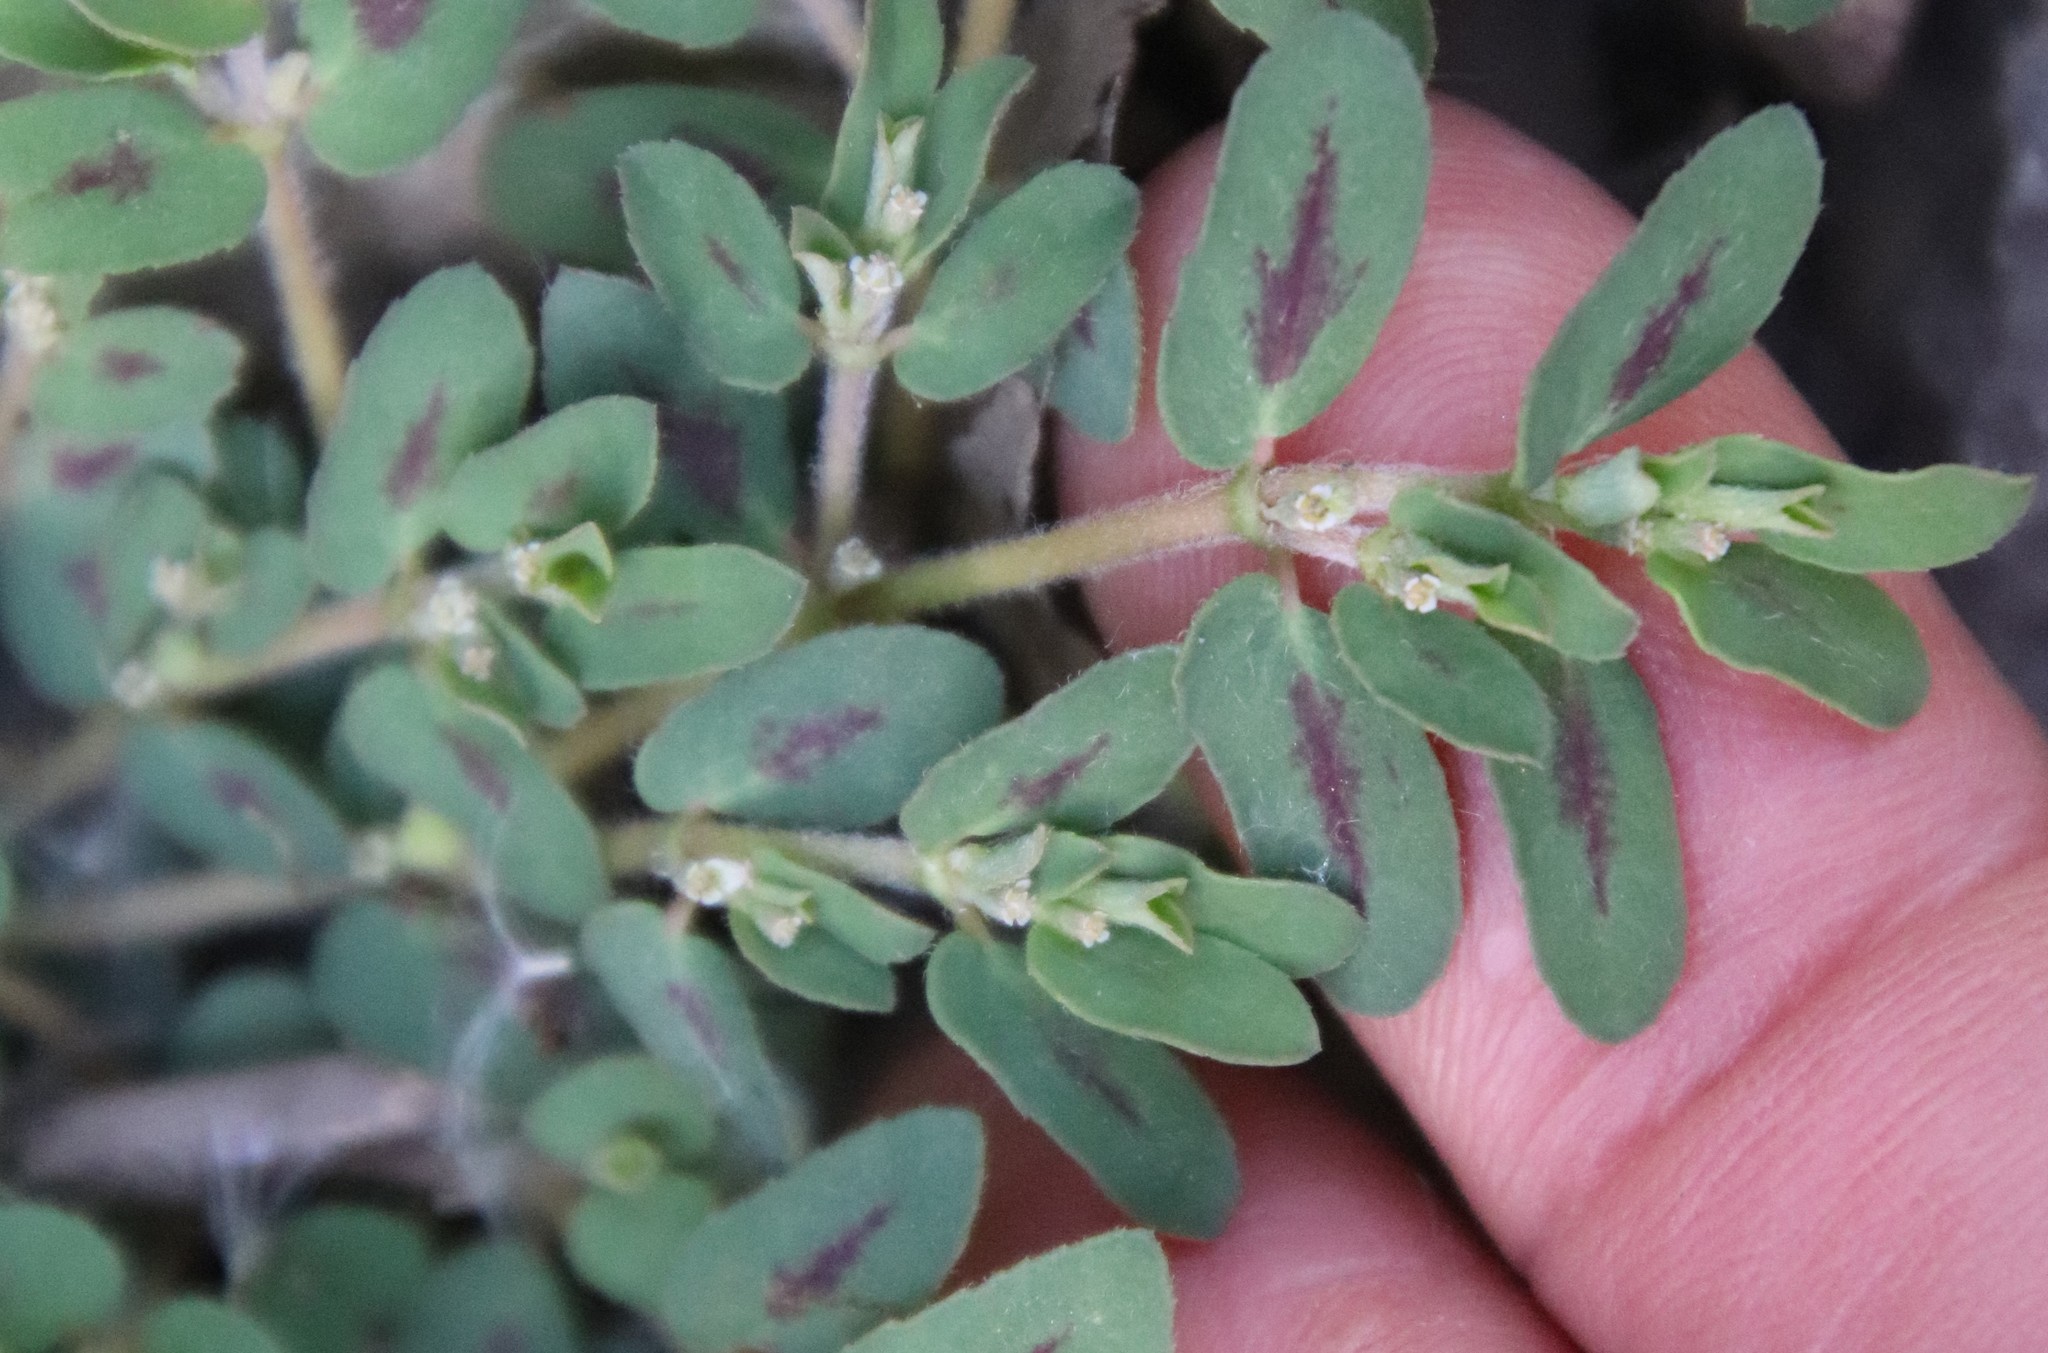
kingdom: Plantae
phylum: Tracheophyta
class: Magnoliopsida
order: Malpighiales
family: Euphorbiaceae
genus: Euphorbia
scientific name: Euphorbia maculata
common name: Spotted spurge
